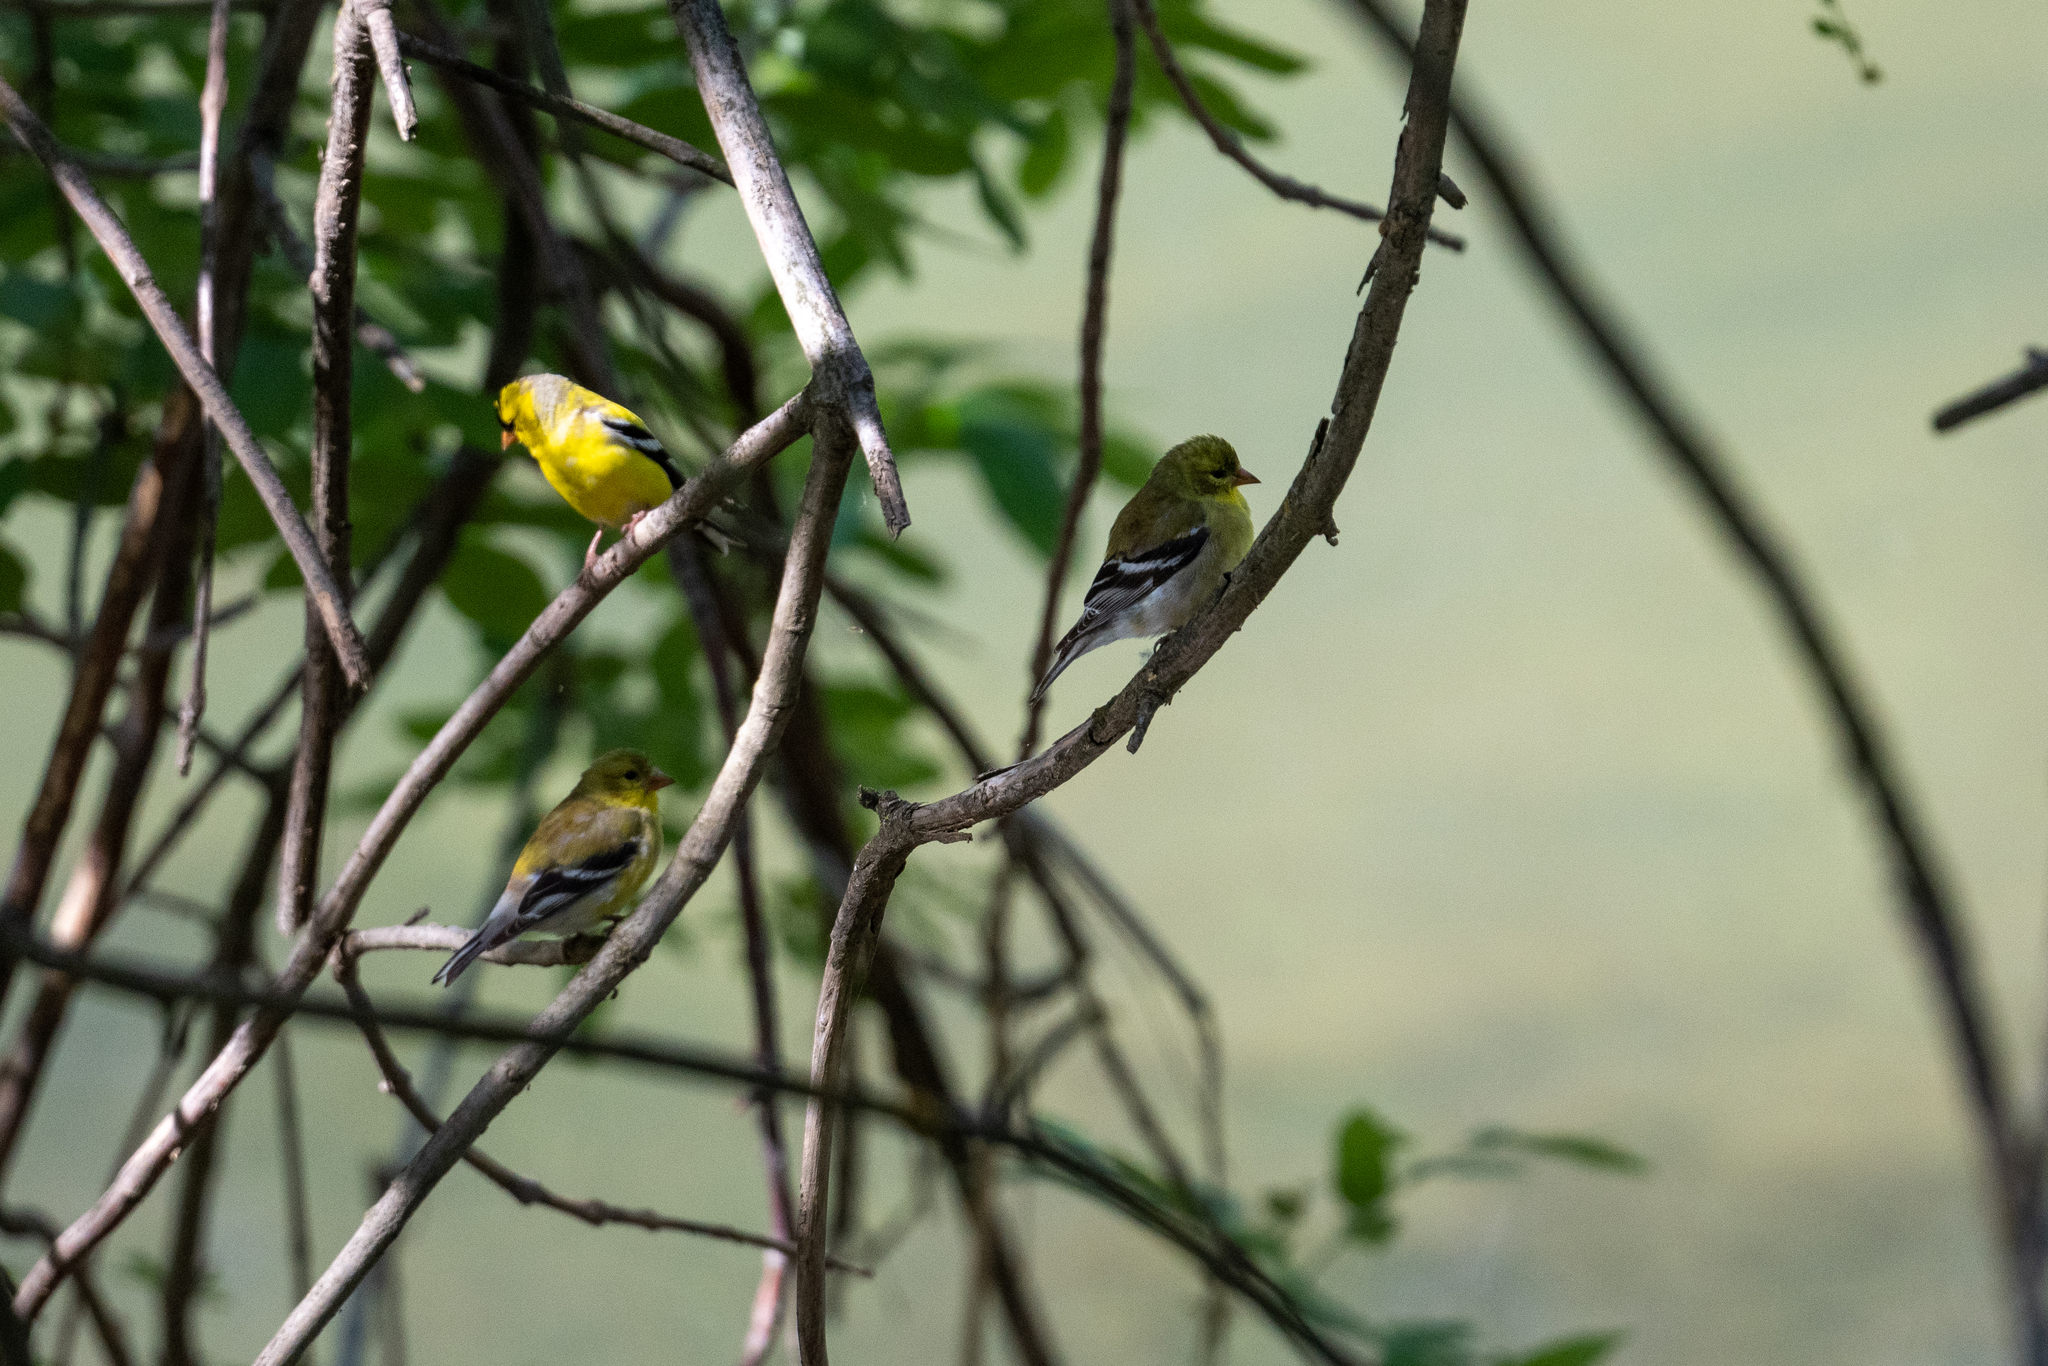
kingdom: Animalia
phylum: Chordata
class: Aves
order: Passeriformes
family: Fringillidae
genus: Spinus
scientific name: Spinus tristis
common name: American goldfinch
